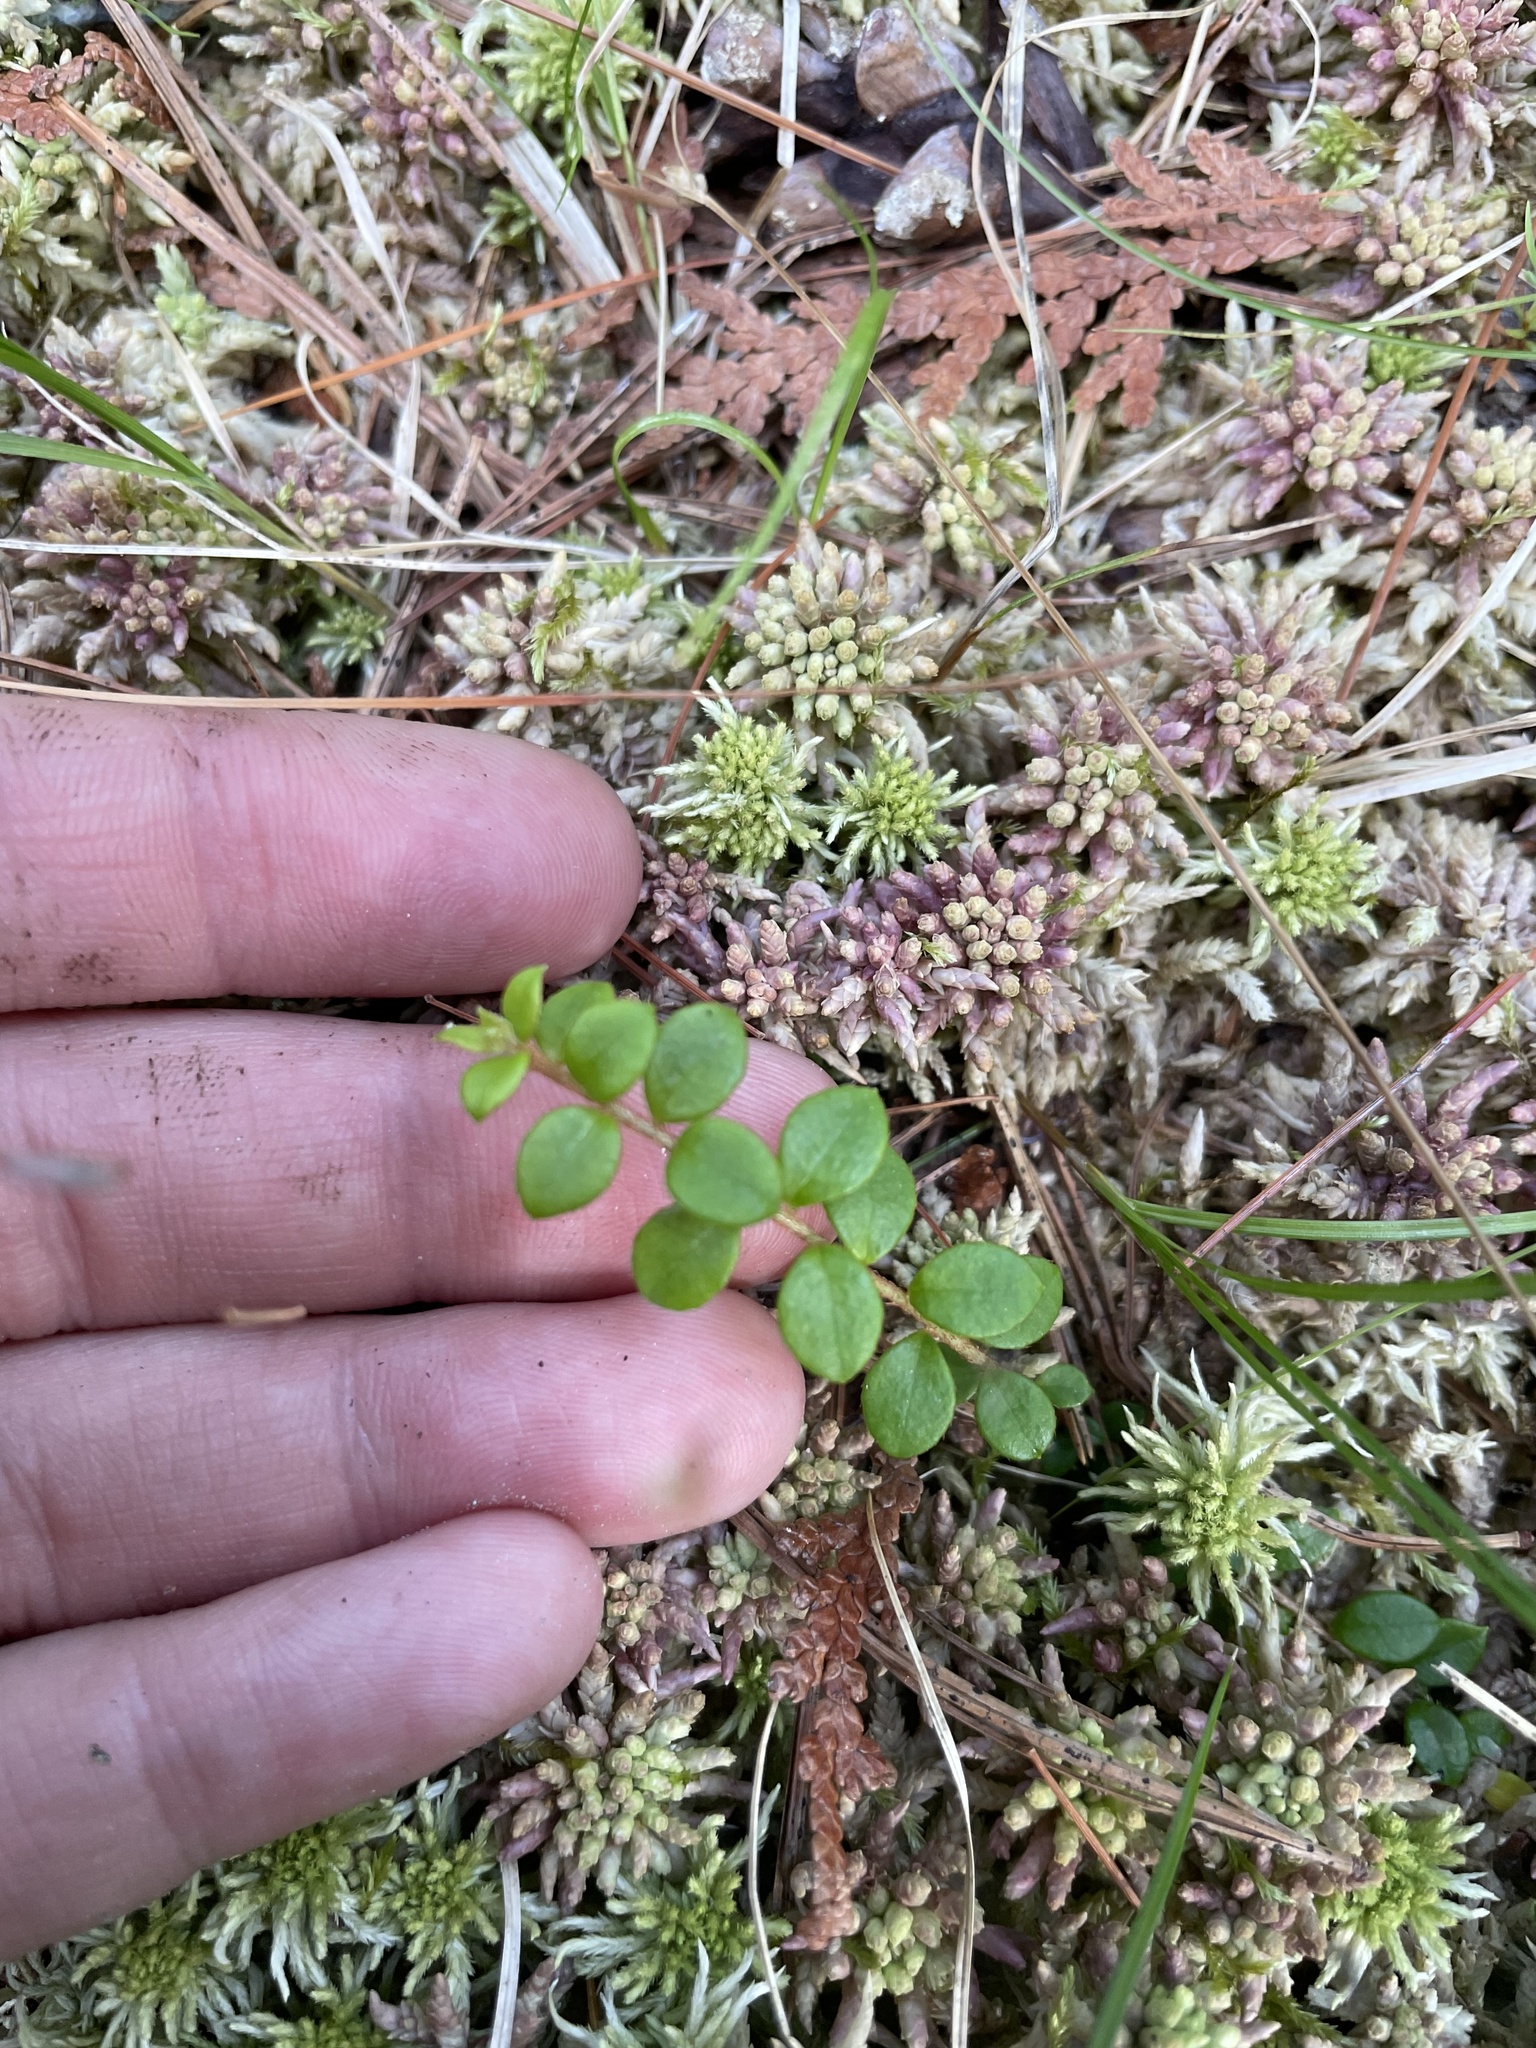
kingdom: Plantae
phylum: Tracheophyta
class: Magnoliopsida
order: Ericales
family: Ericaceae
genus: Gaultheria
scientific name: Gaultheria hispidula
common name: Cancer wintergreen
